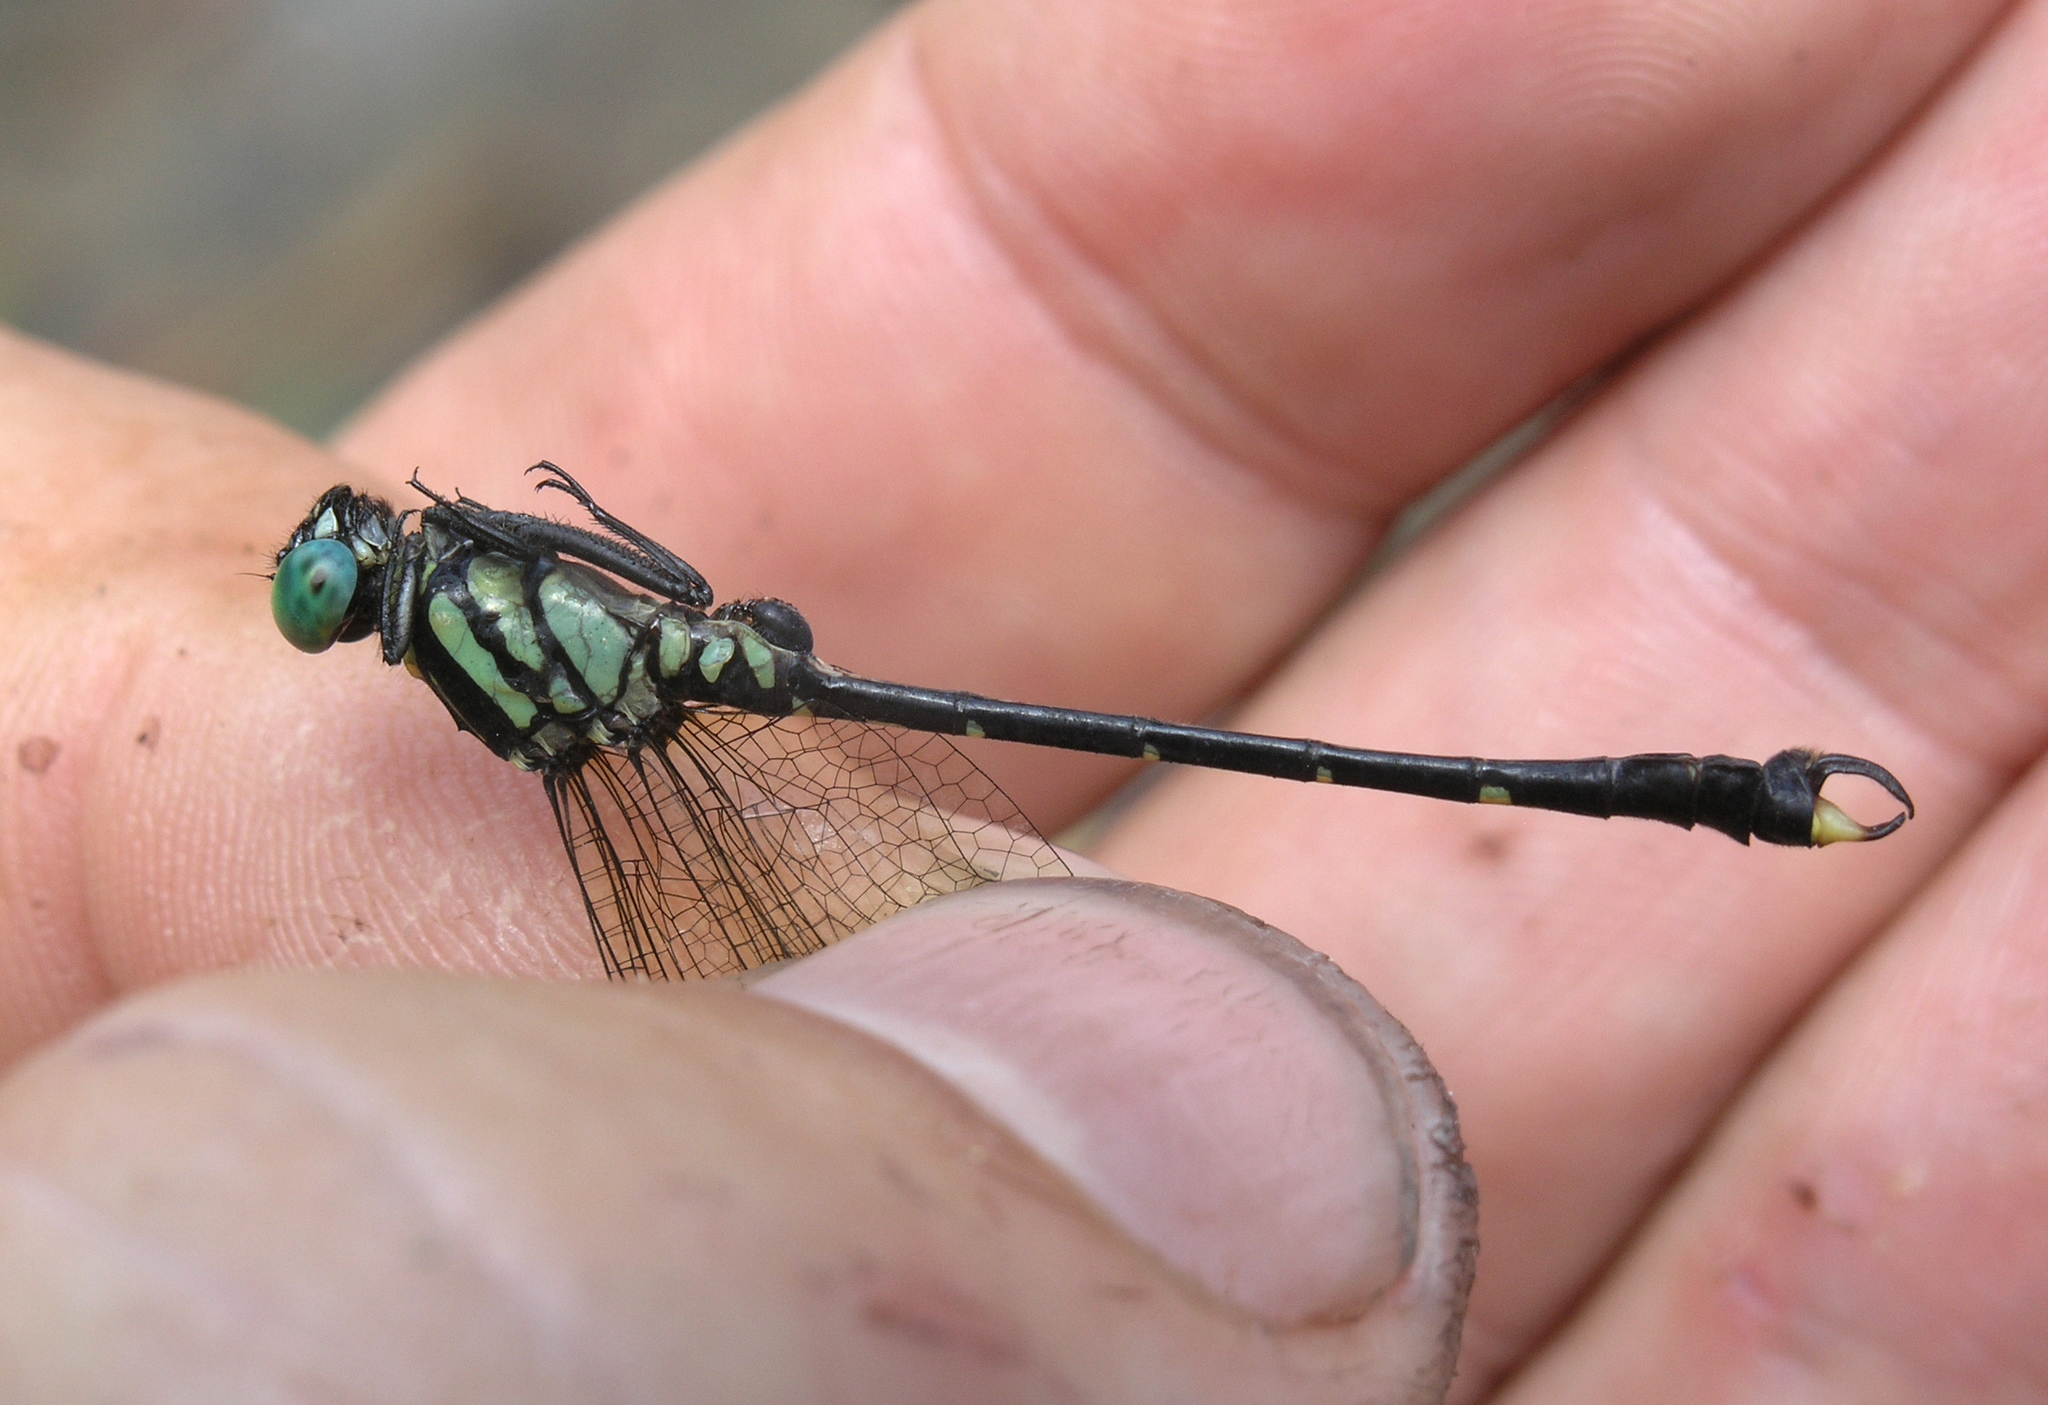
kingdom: Animalia
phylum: Arthropoda
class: Insecta
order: Odonata
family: Gomphidae
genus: Nepogomphus
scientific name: Nepogomphus walli
